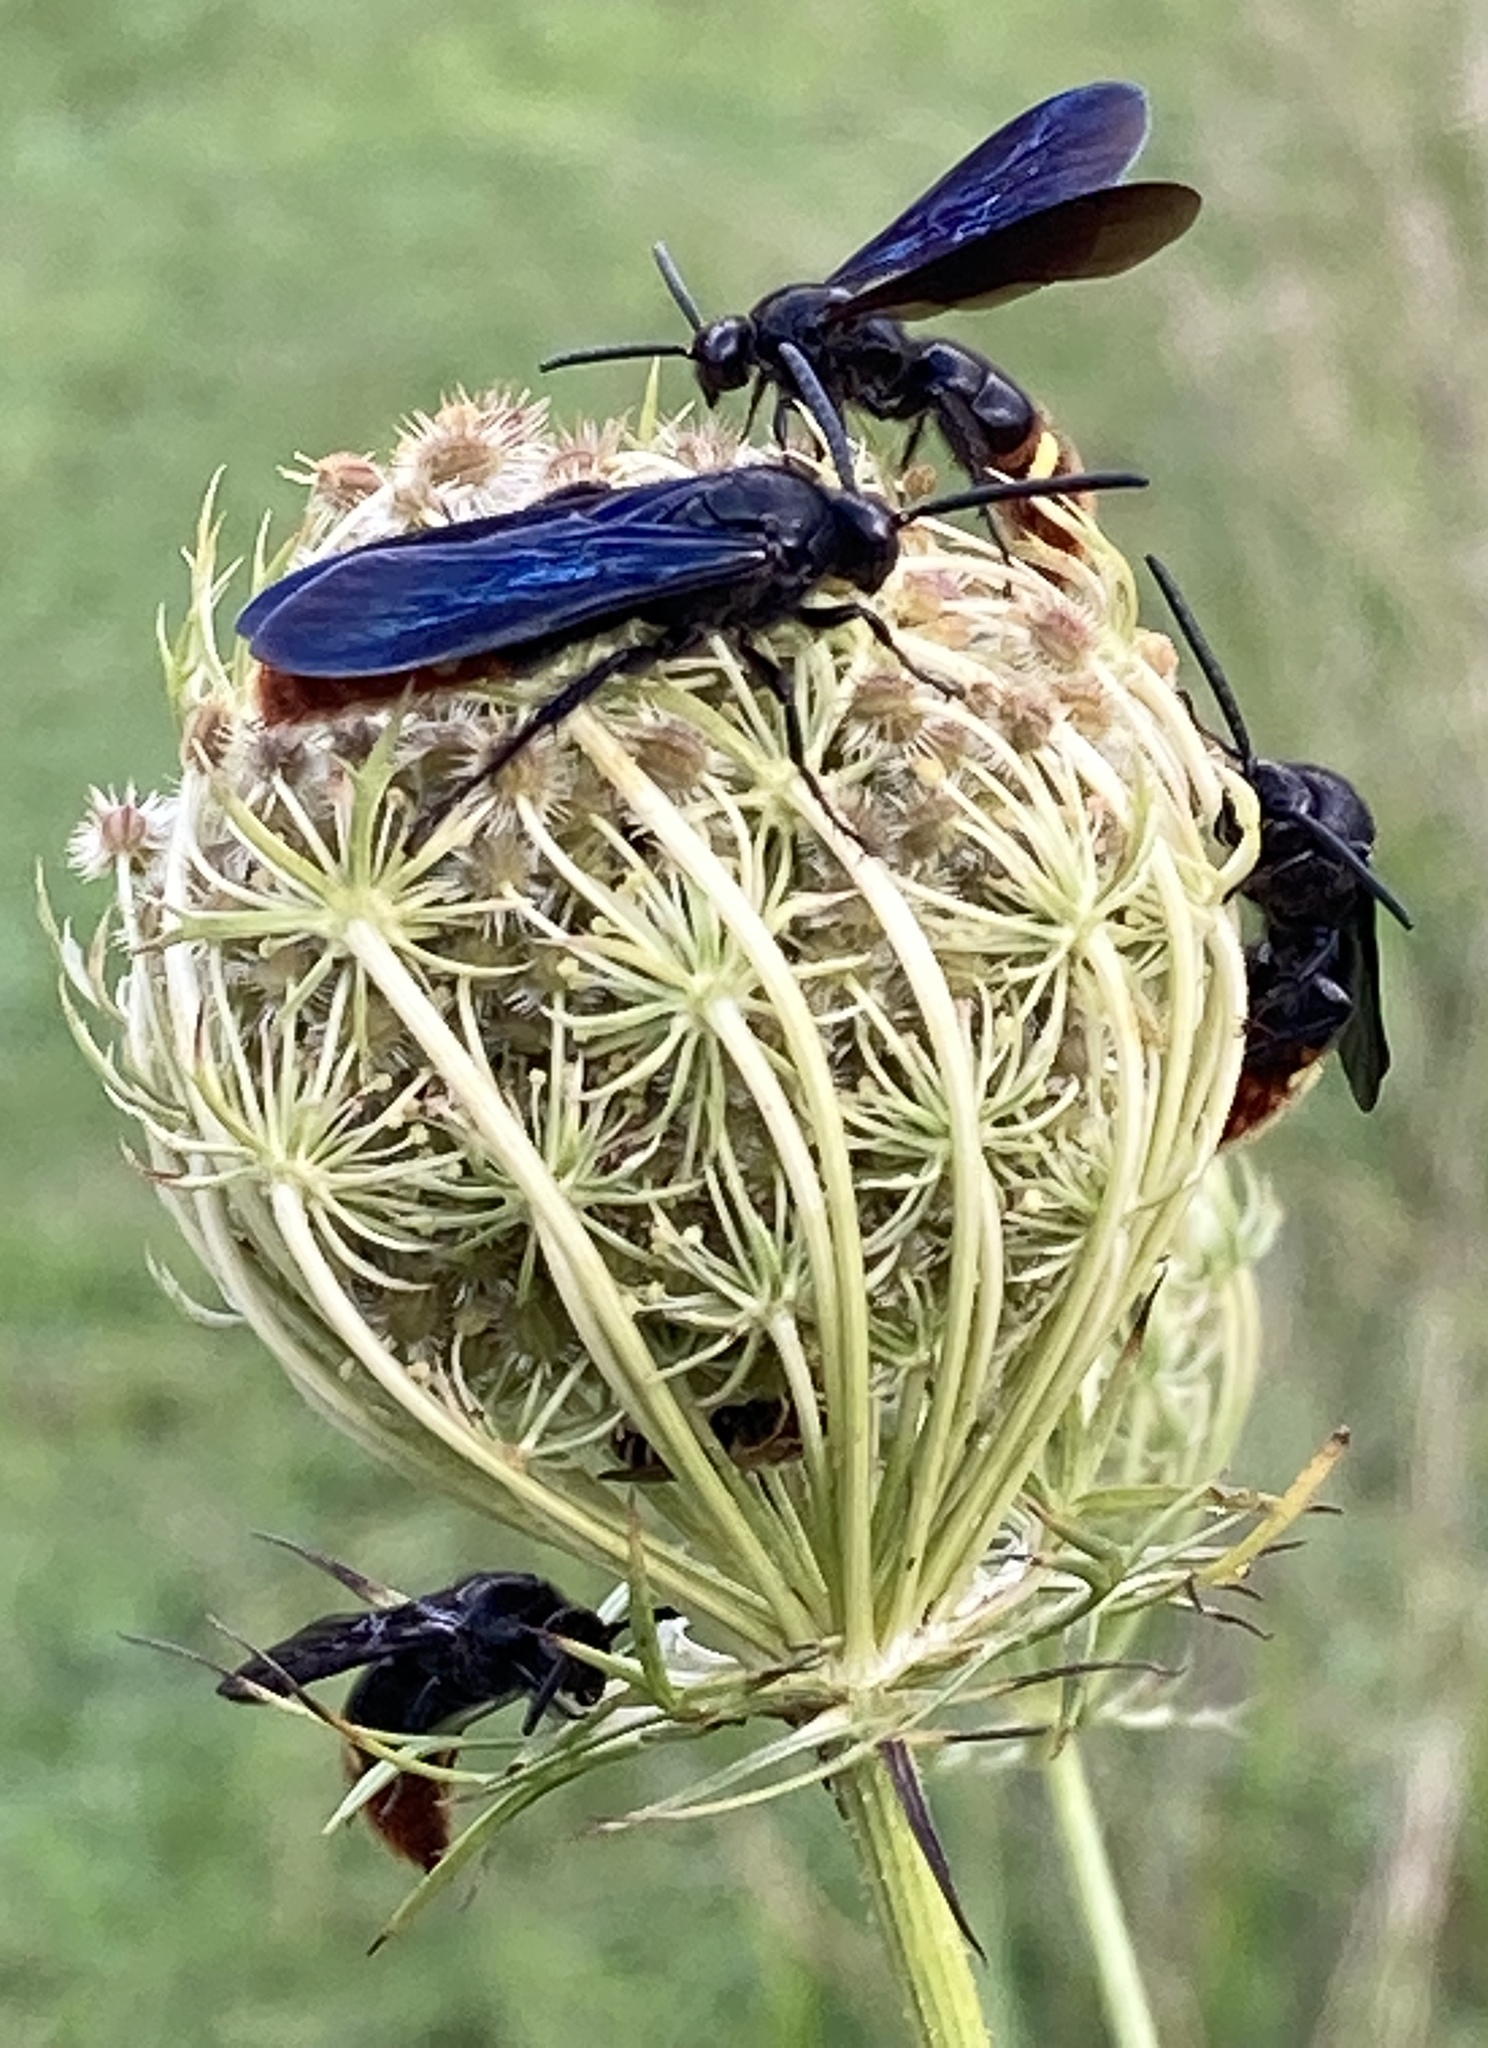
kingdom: Animalia
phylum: Arthropoda
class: Insecta
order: Hymenoptera
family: Scoliidae
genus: Scolia
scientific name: Scolia dubia
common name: Blue-winged scoliid wasp
